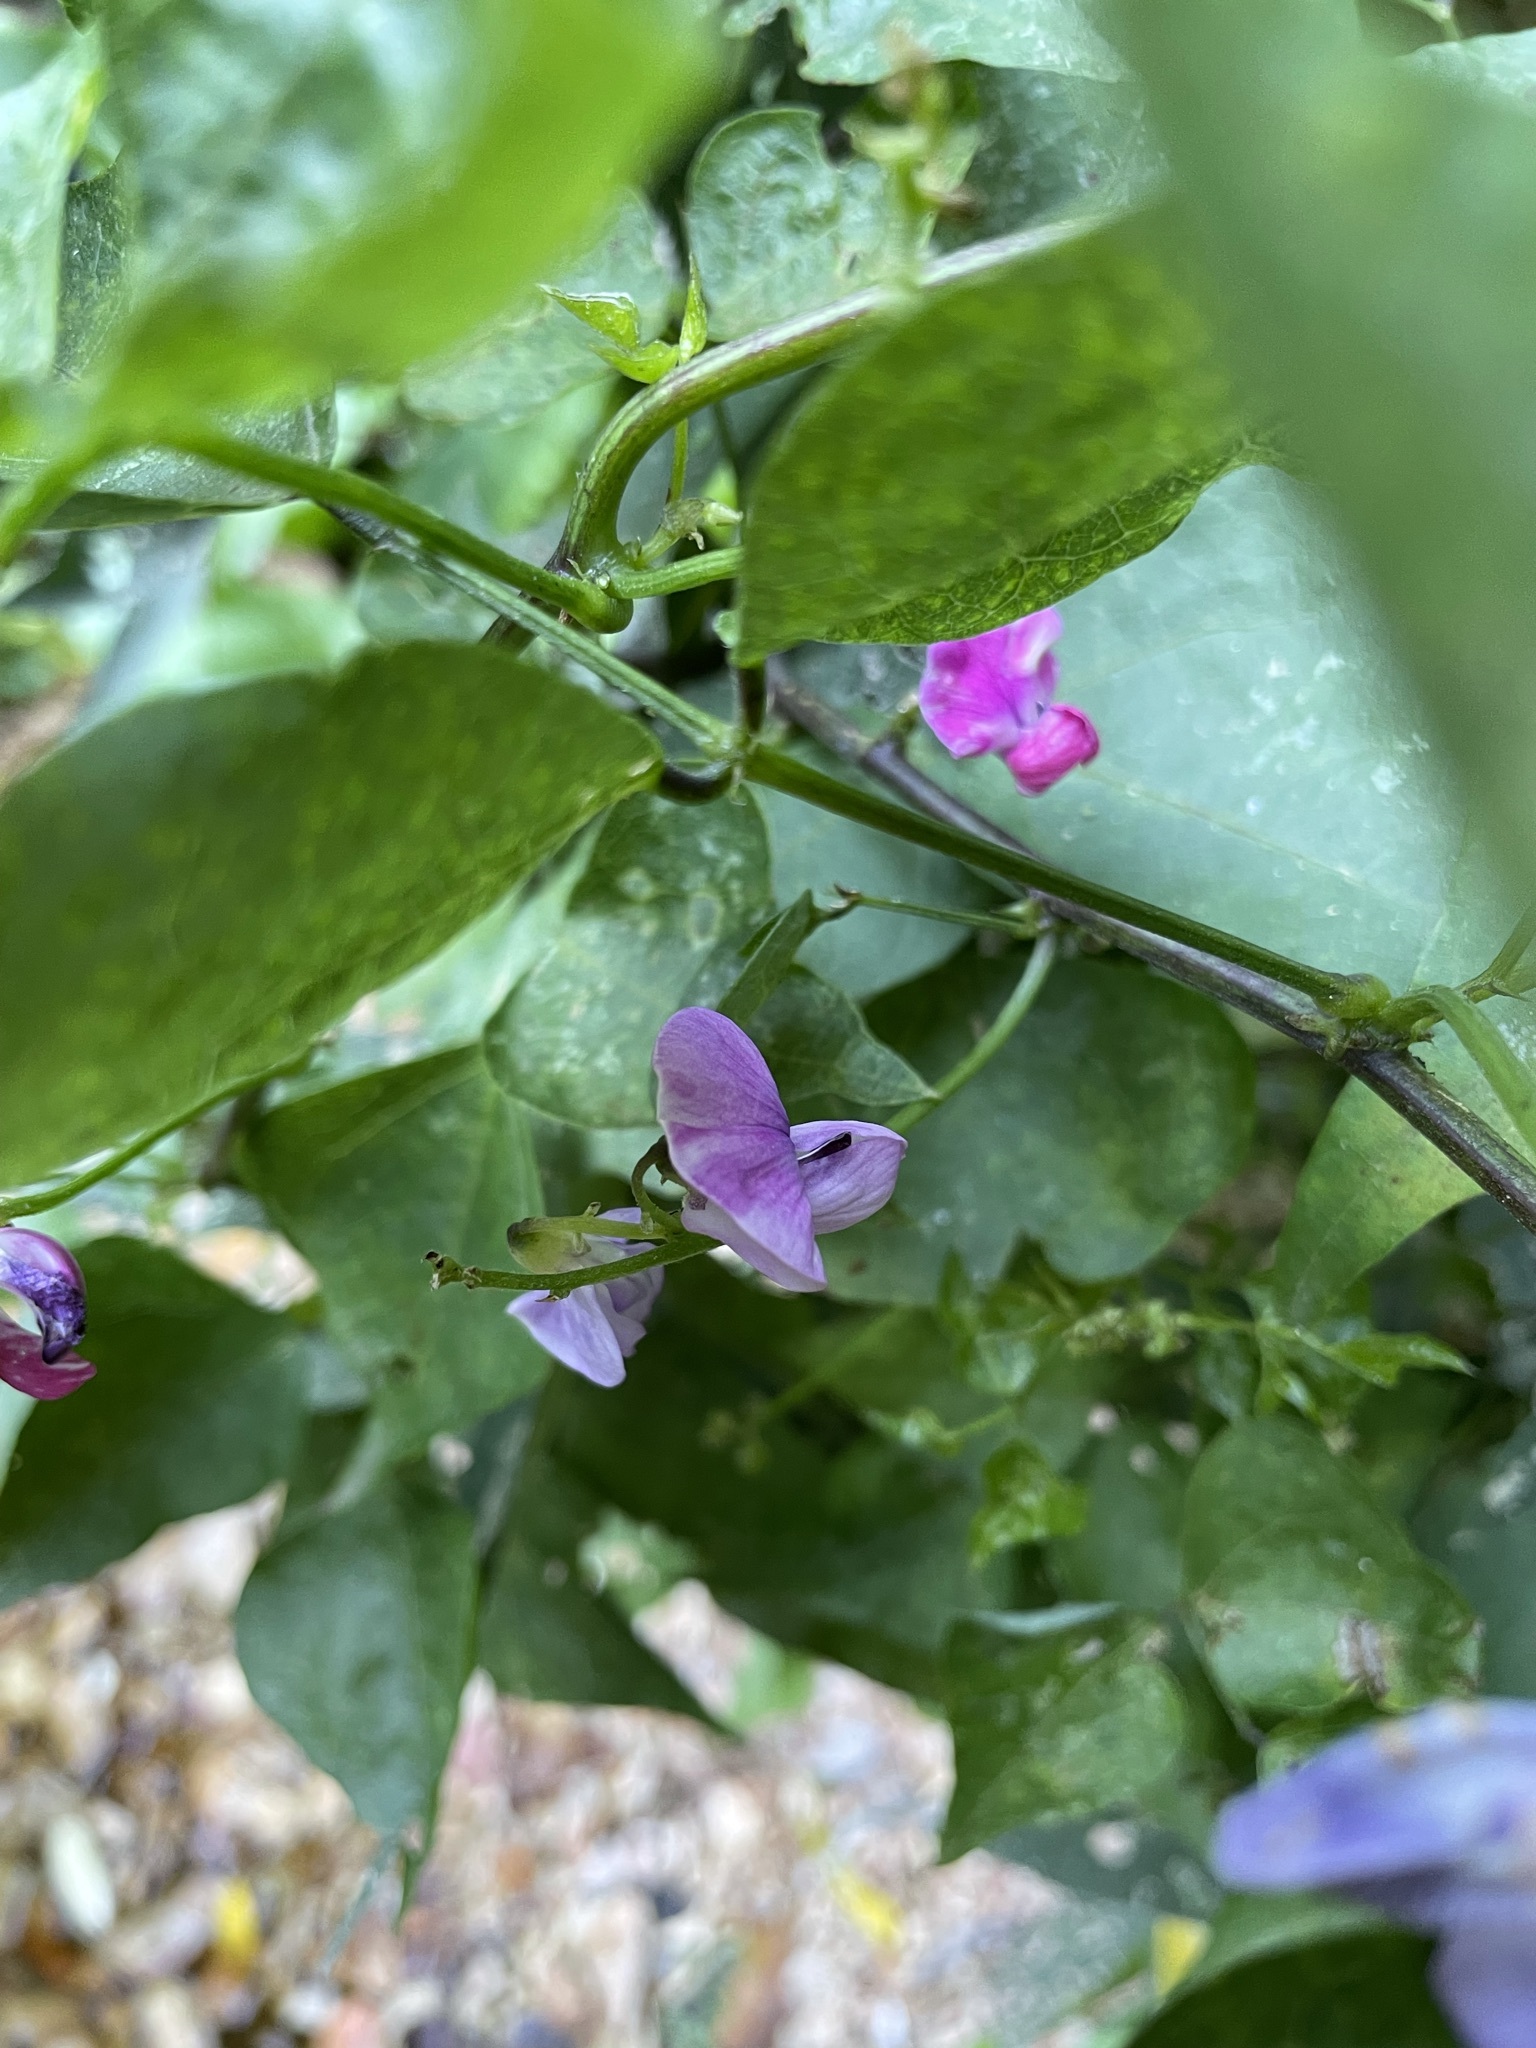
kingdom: Plantae
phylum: Tracheophyta
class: Magnoliopsida
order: Fabales
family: Fabaceae
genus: Dipogon
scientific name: Dipogon lignosus
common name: Okie bean
